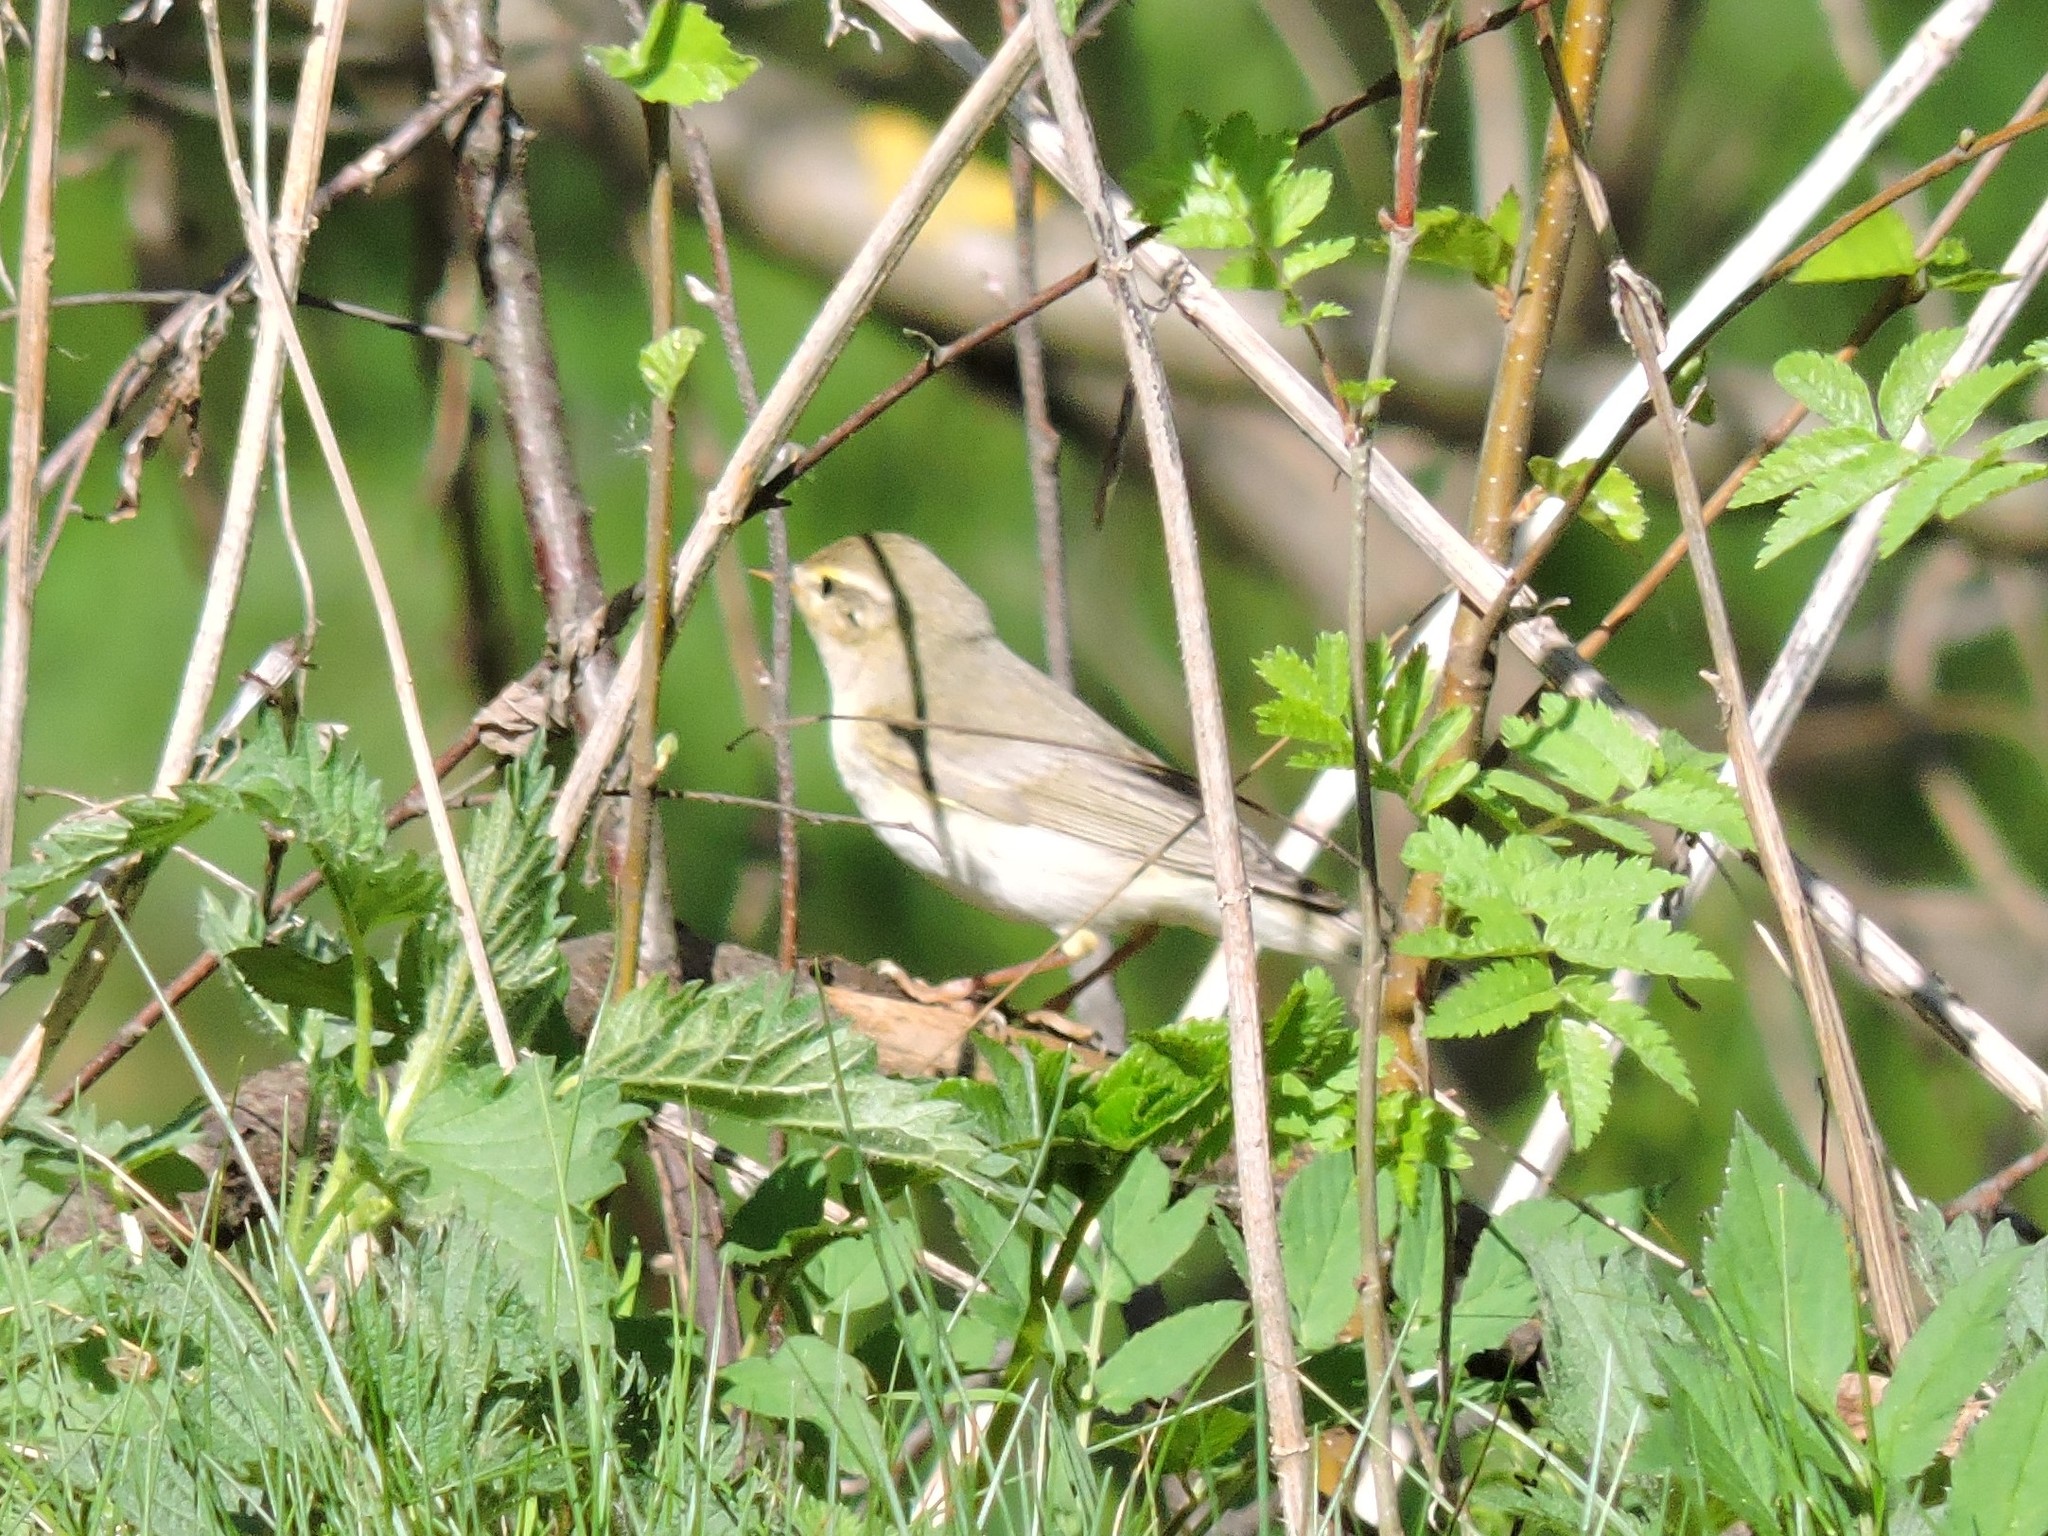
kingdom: Animalia
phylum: Chordata
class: Aves
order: Passeriformes
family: Phylloscopidae
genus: Phylloscopus
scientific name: Phylloscopus trochilus
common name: Willow warbler
